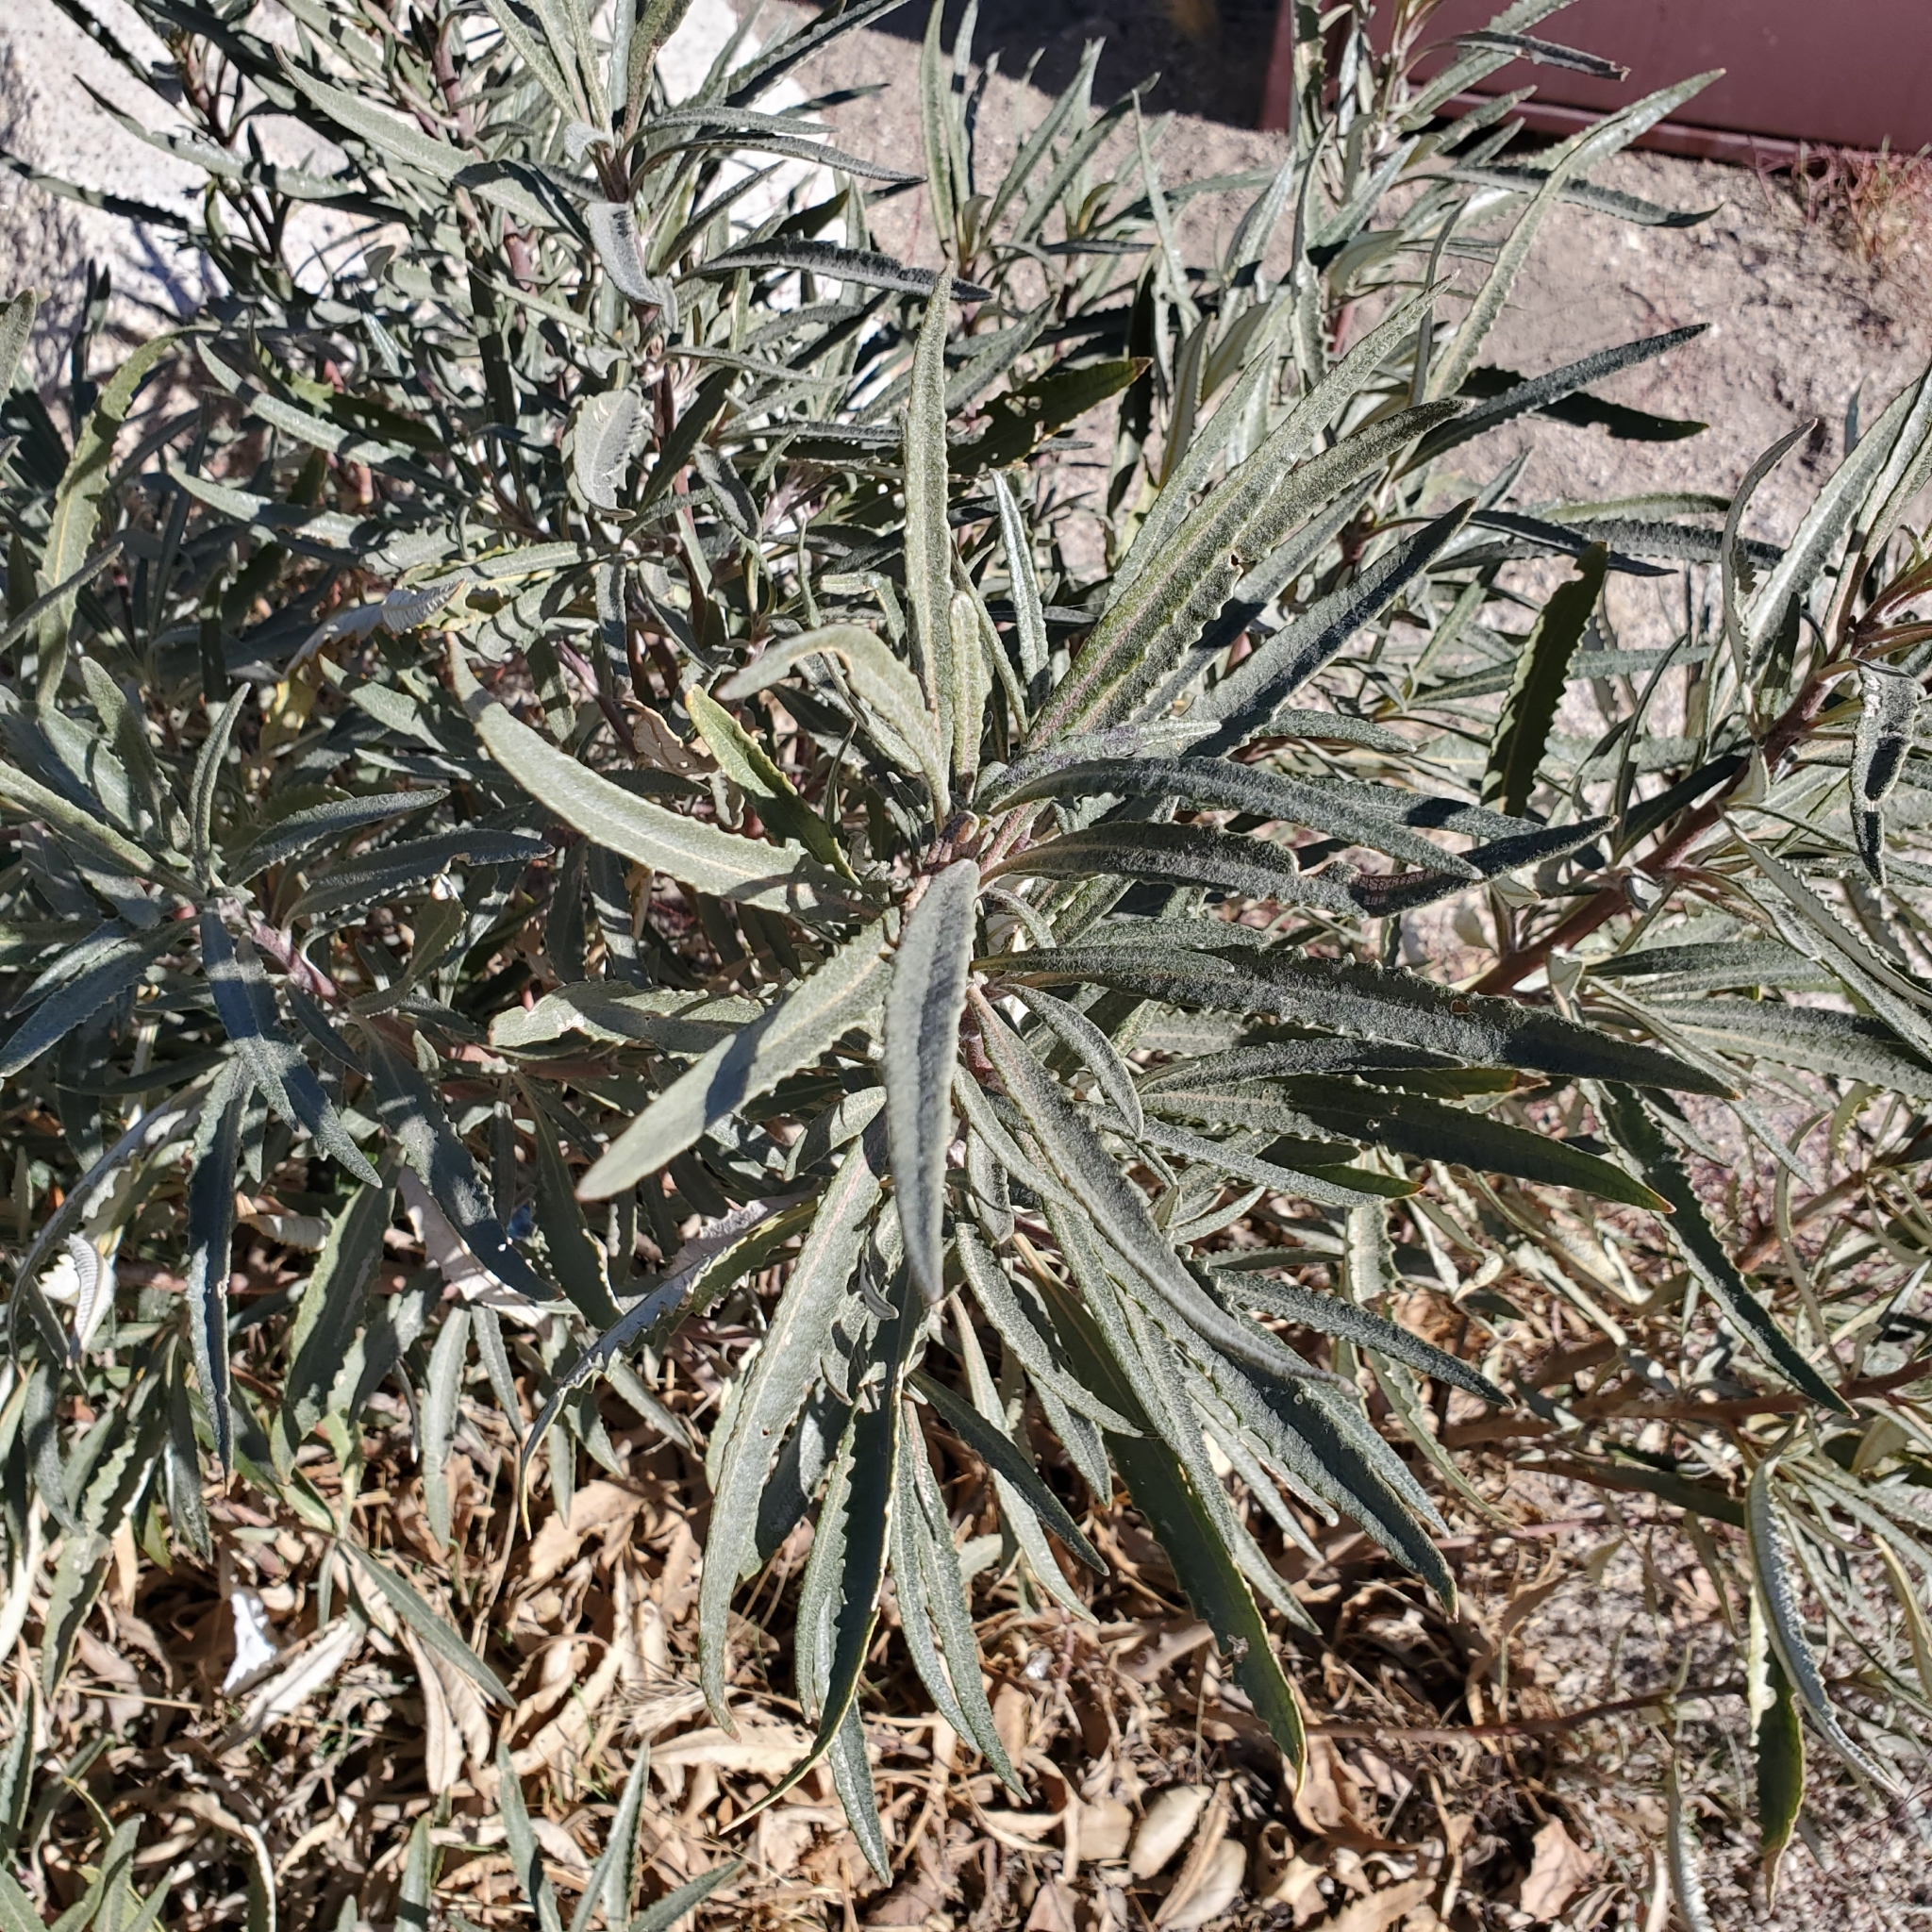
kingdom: Plantae
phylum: Tracheophyta
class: Magnoliopsida
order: Boraginales
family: Namaceae
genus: Eriodictyon
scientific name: Eriodictyon trichocalyx
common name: Hairy yerba-santa
